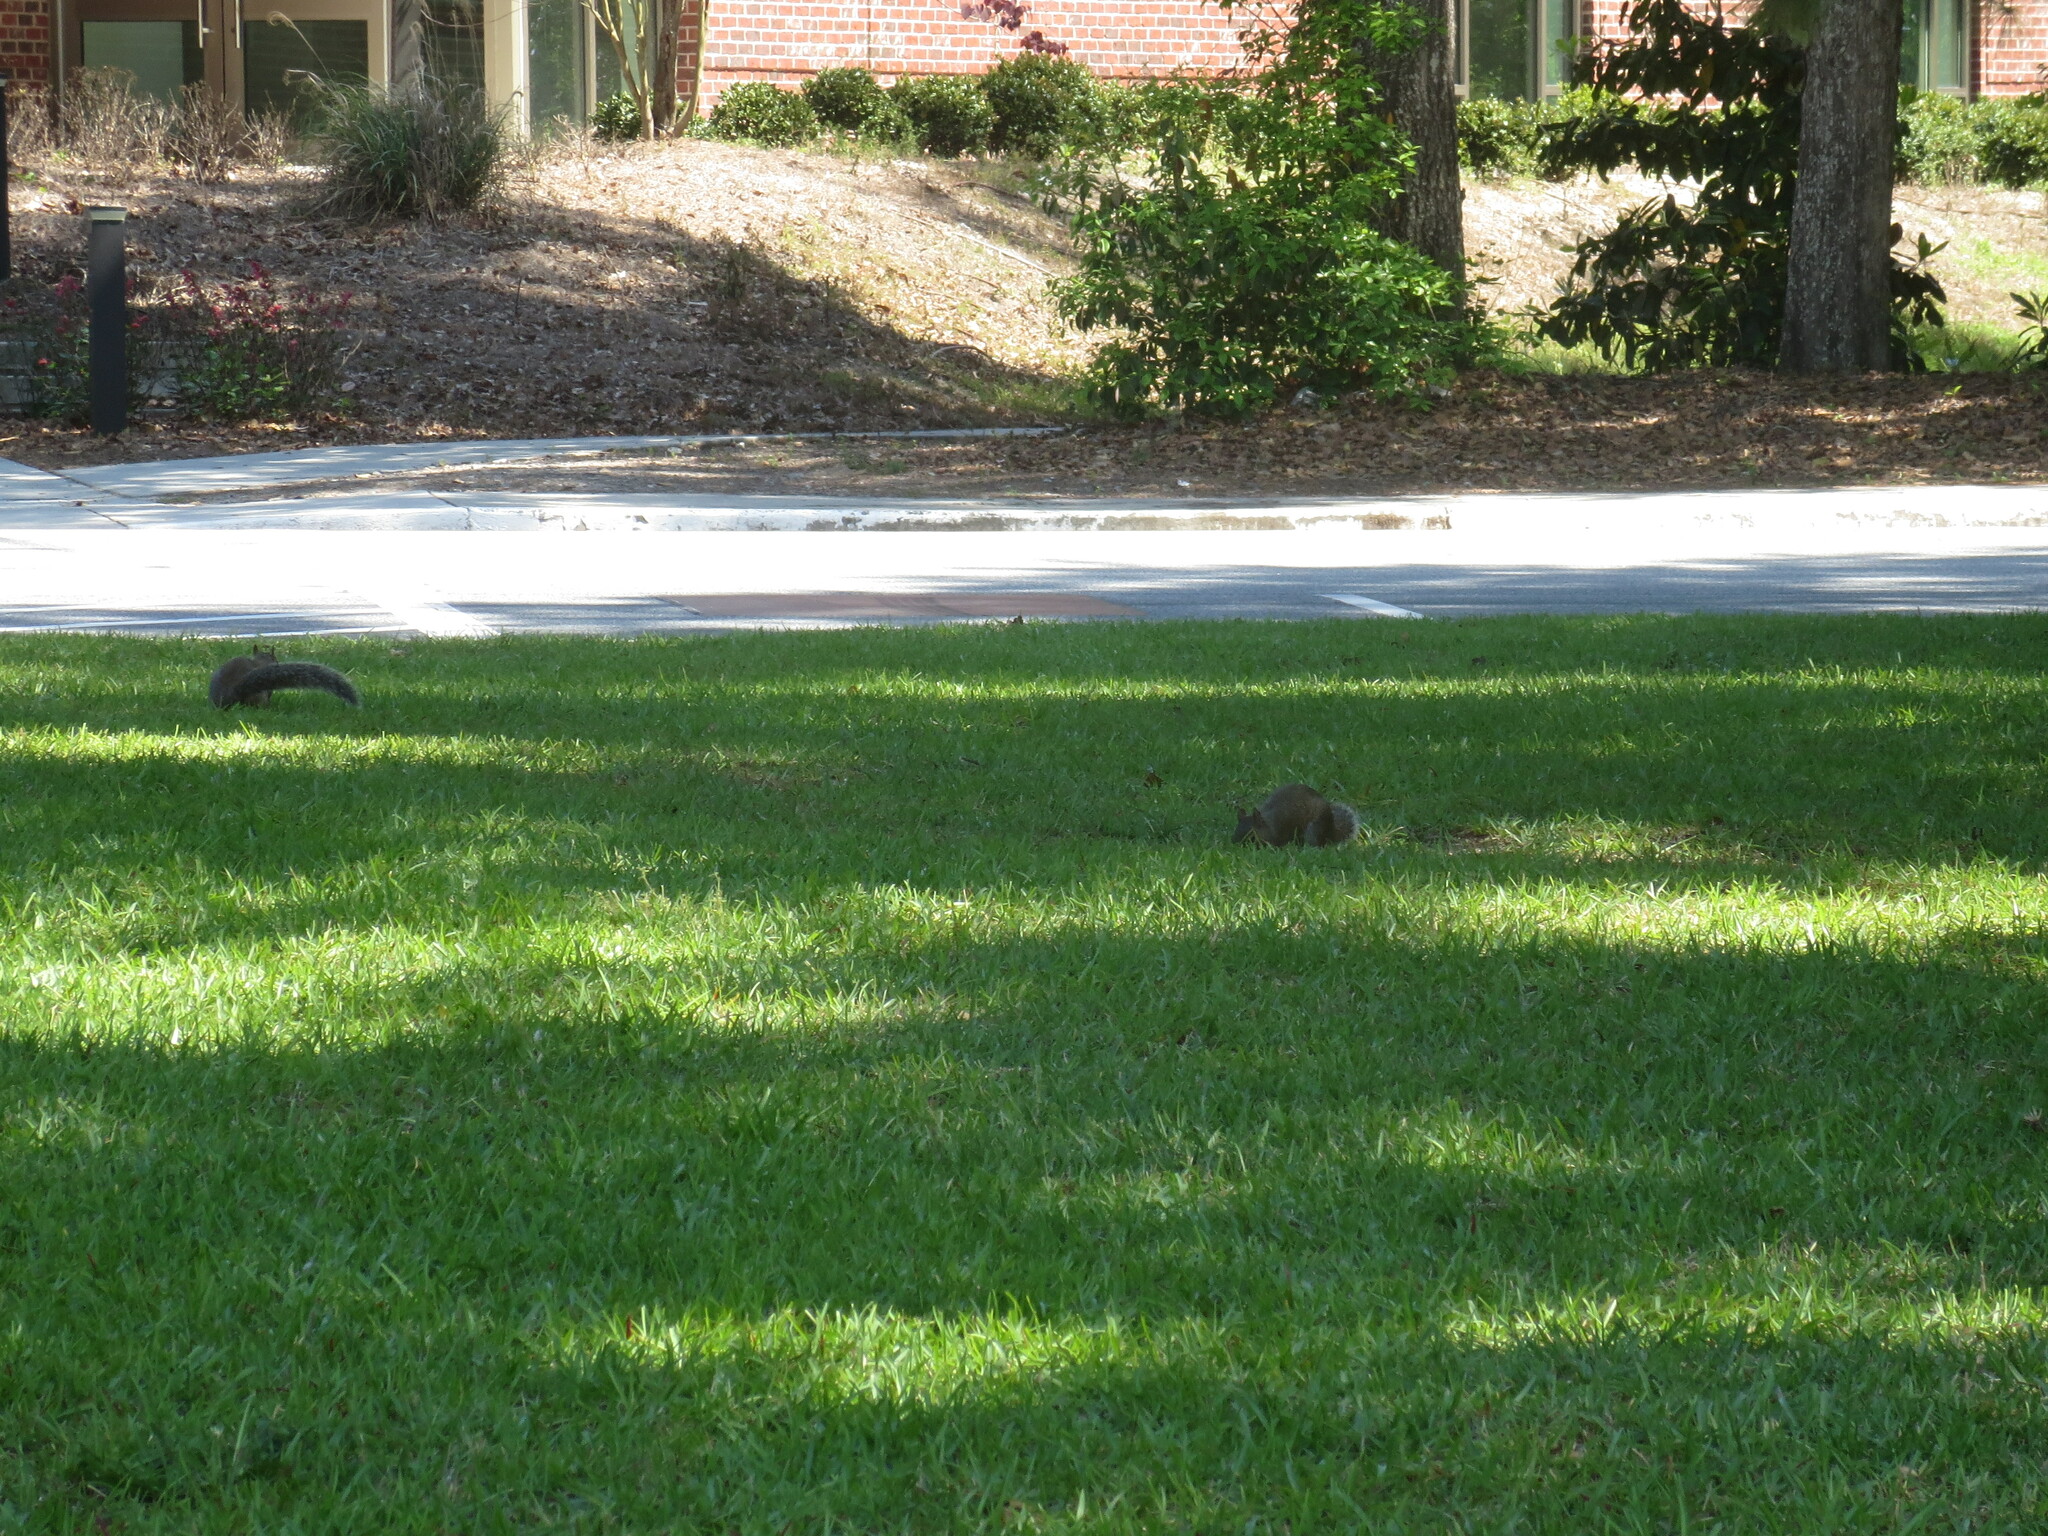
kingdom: Animalia
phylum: Chordata
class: Mammalia
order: Rodentia
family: Sciuridae
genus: Sciurus
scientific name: Sciurus carolinensis
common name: Eastern gray squirrel
